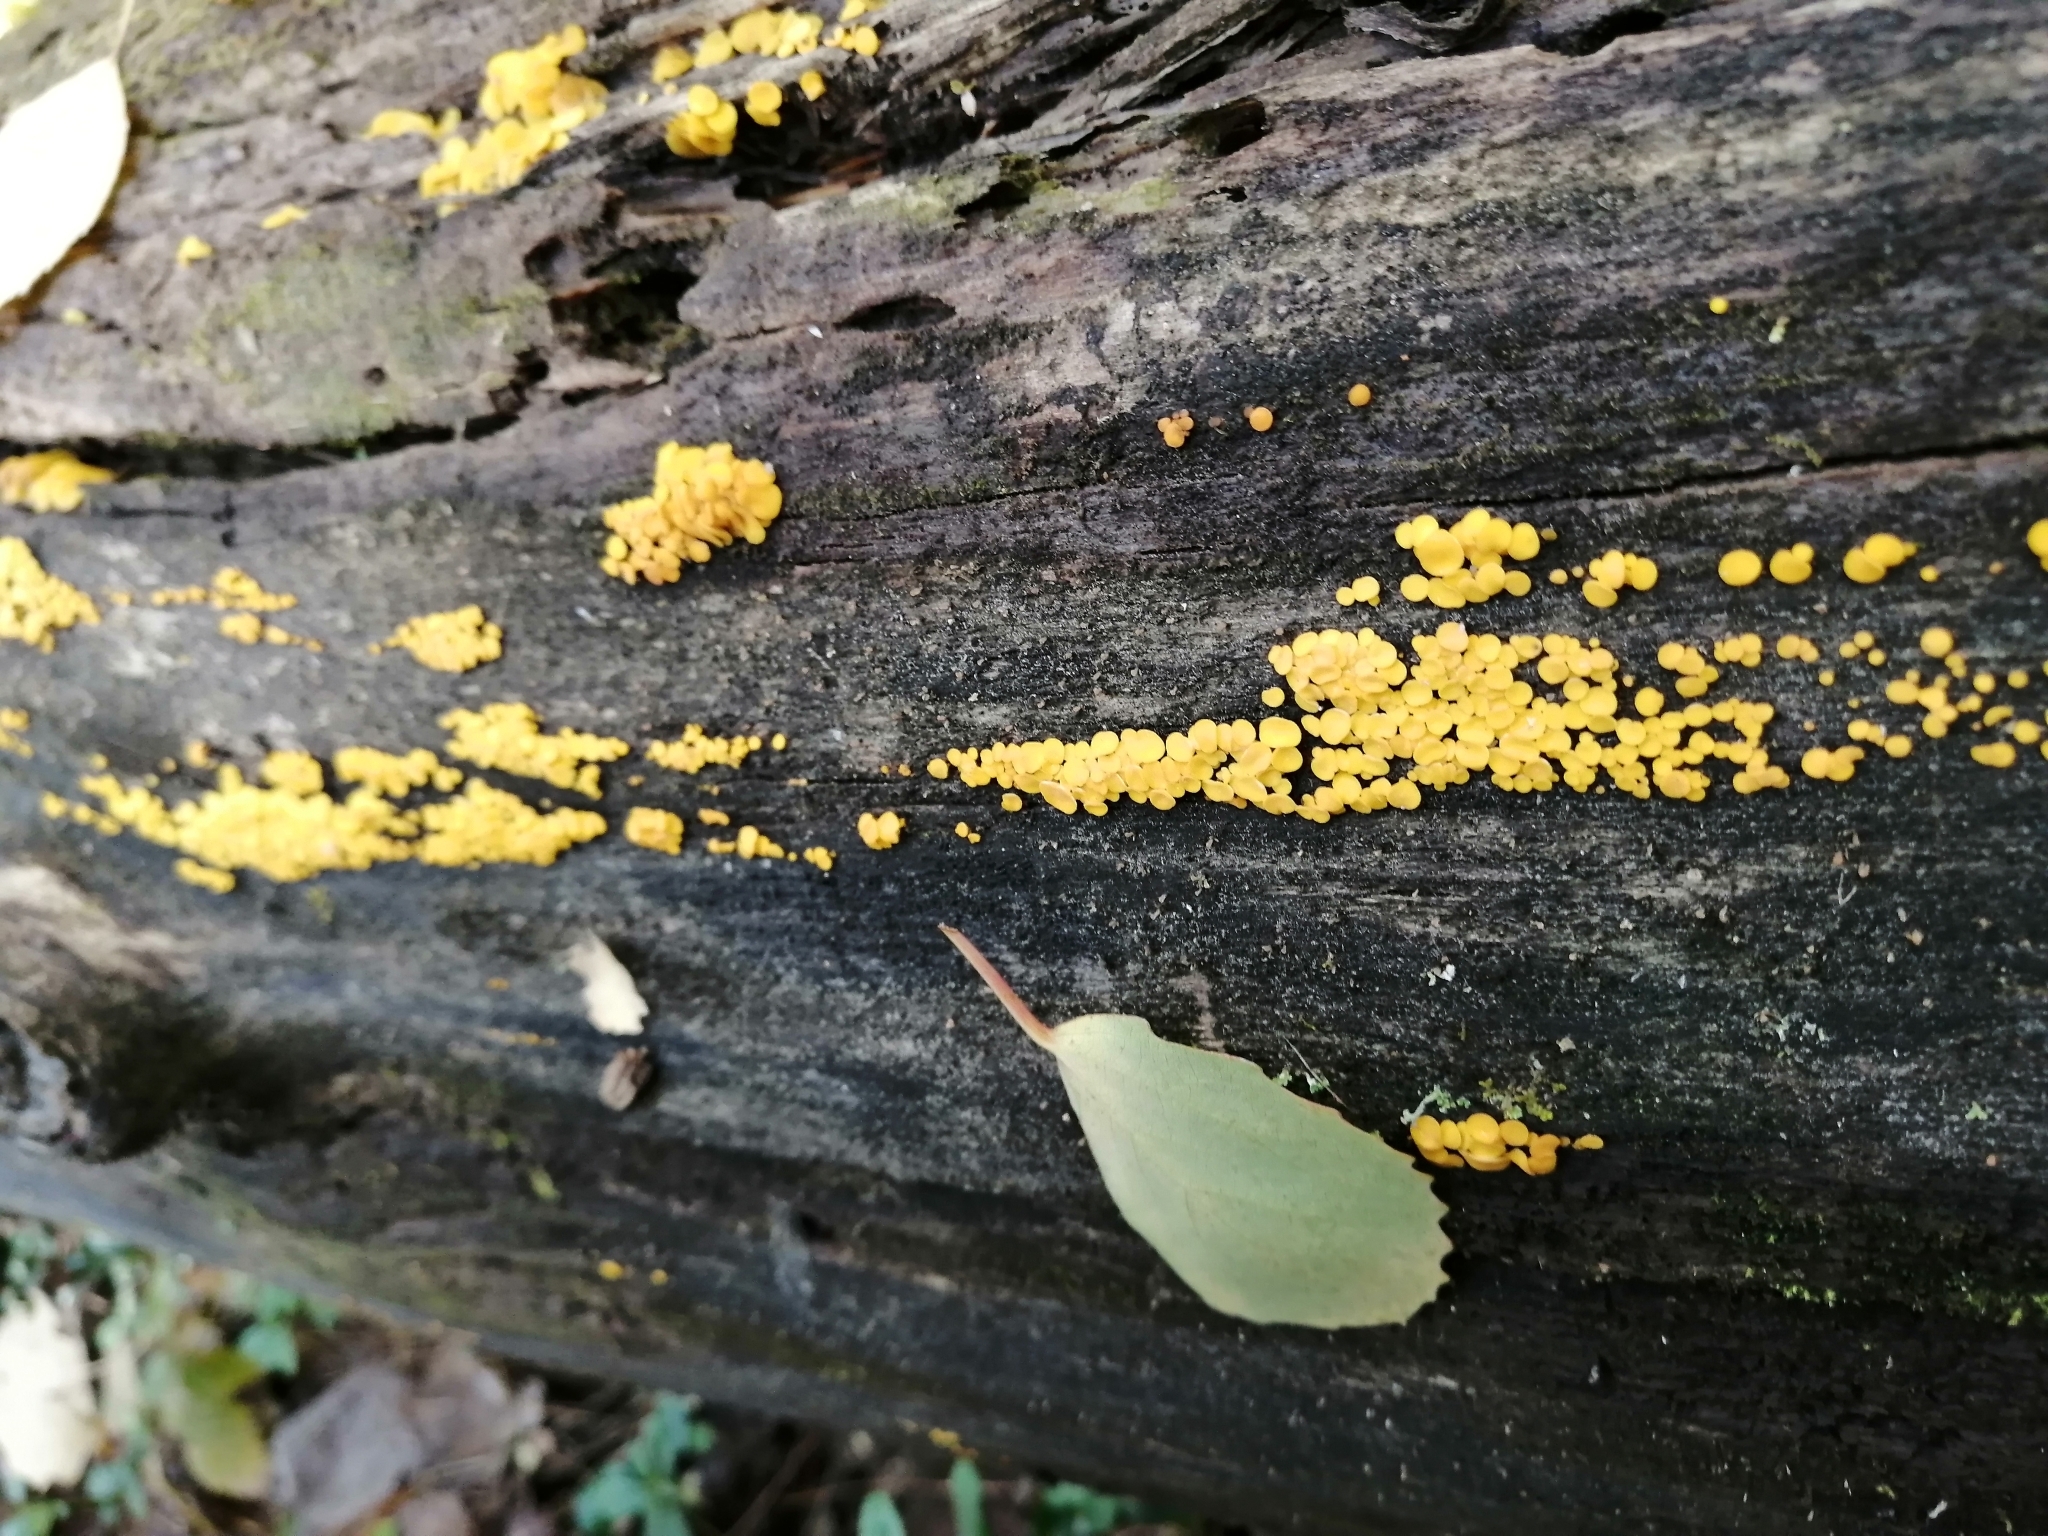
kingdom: Fungi
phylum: Ascomycota
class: Leotiomycetes
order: Helotiales
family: Pezizellaceae
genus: Calycina
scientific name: Calycina citrina
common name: Yellow fairy cups
